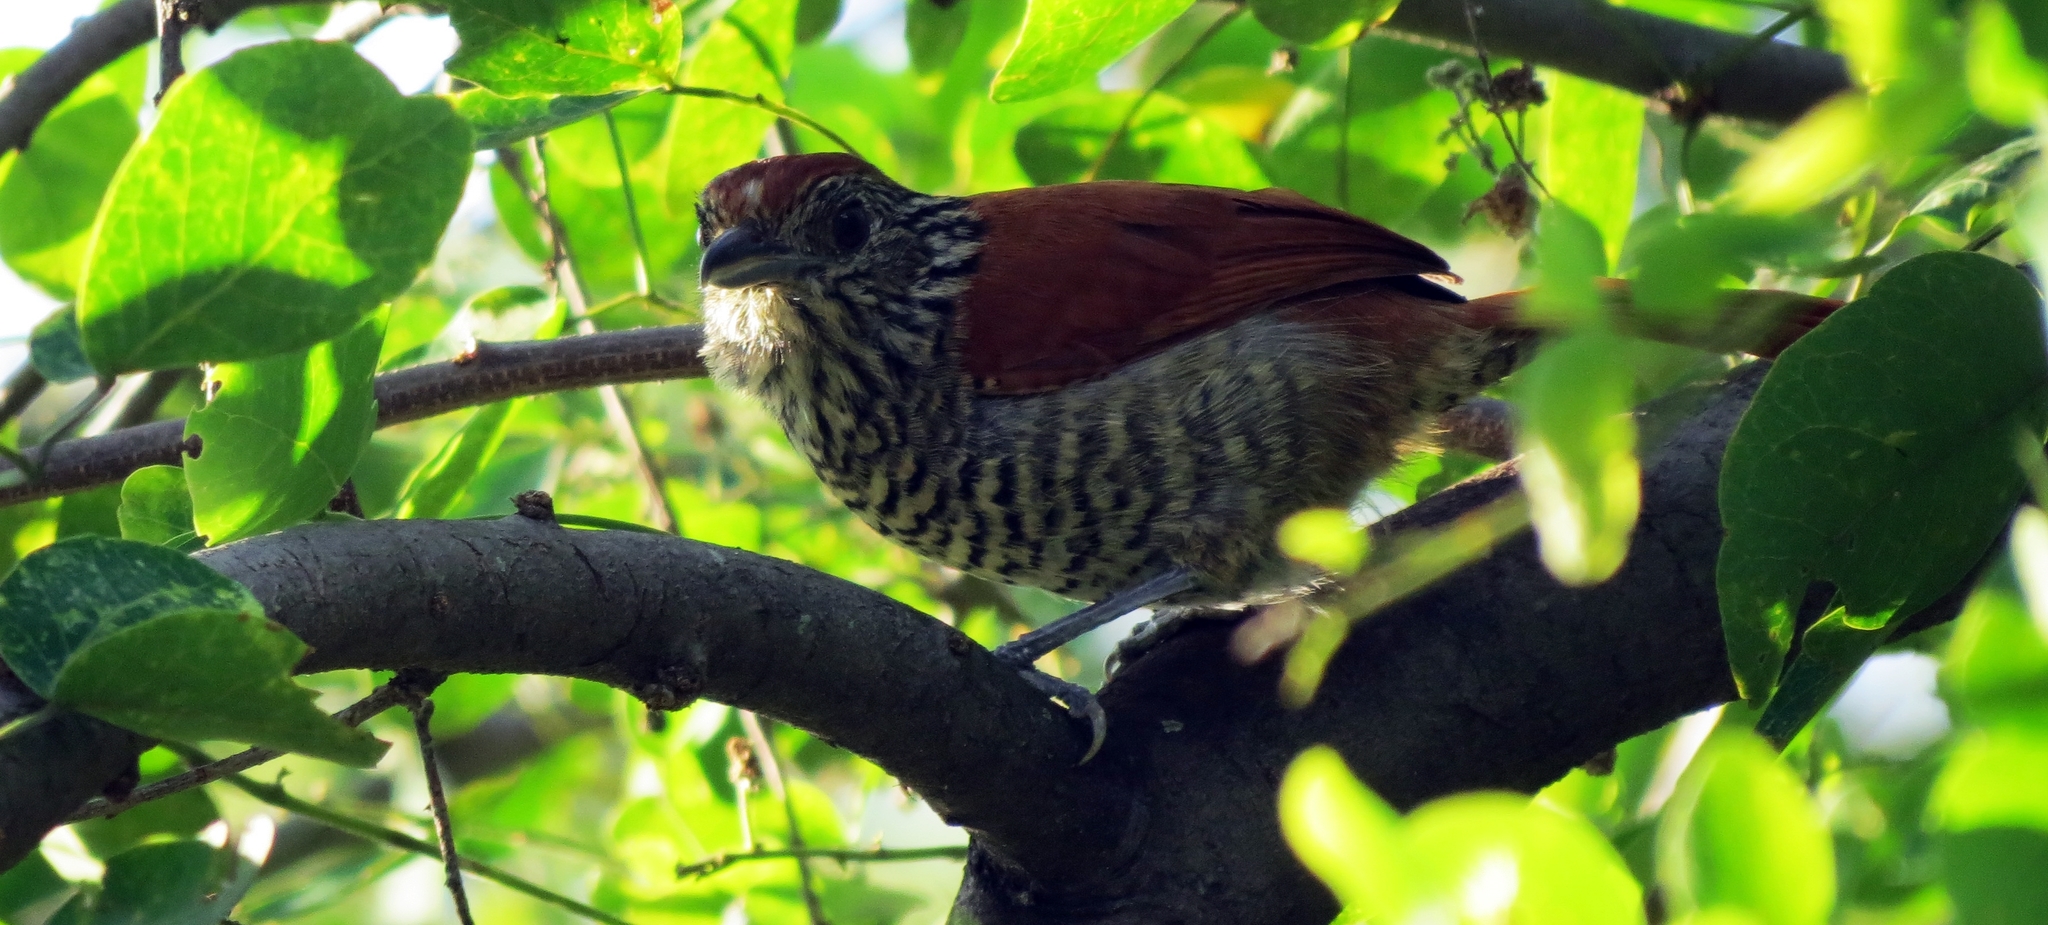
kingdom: Animalia
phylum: Chordata
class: Aves
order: Passeriformes
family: Thamnophilidae
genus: Thamnophilus
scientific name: Thamnophilus multistriatus
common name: Bar-crested antshrike
